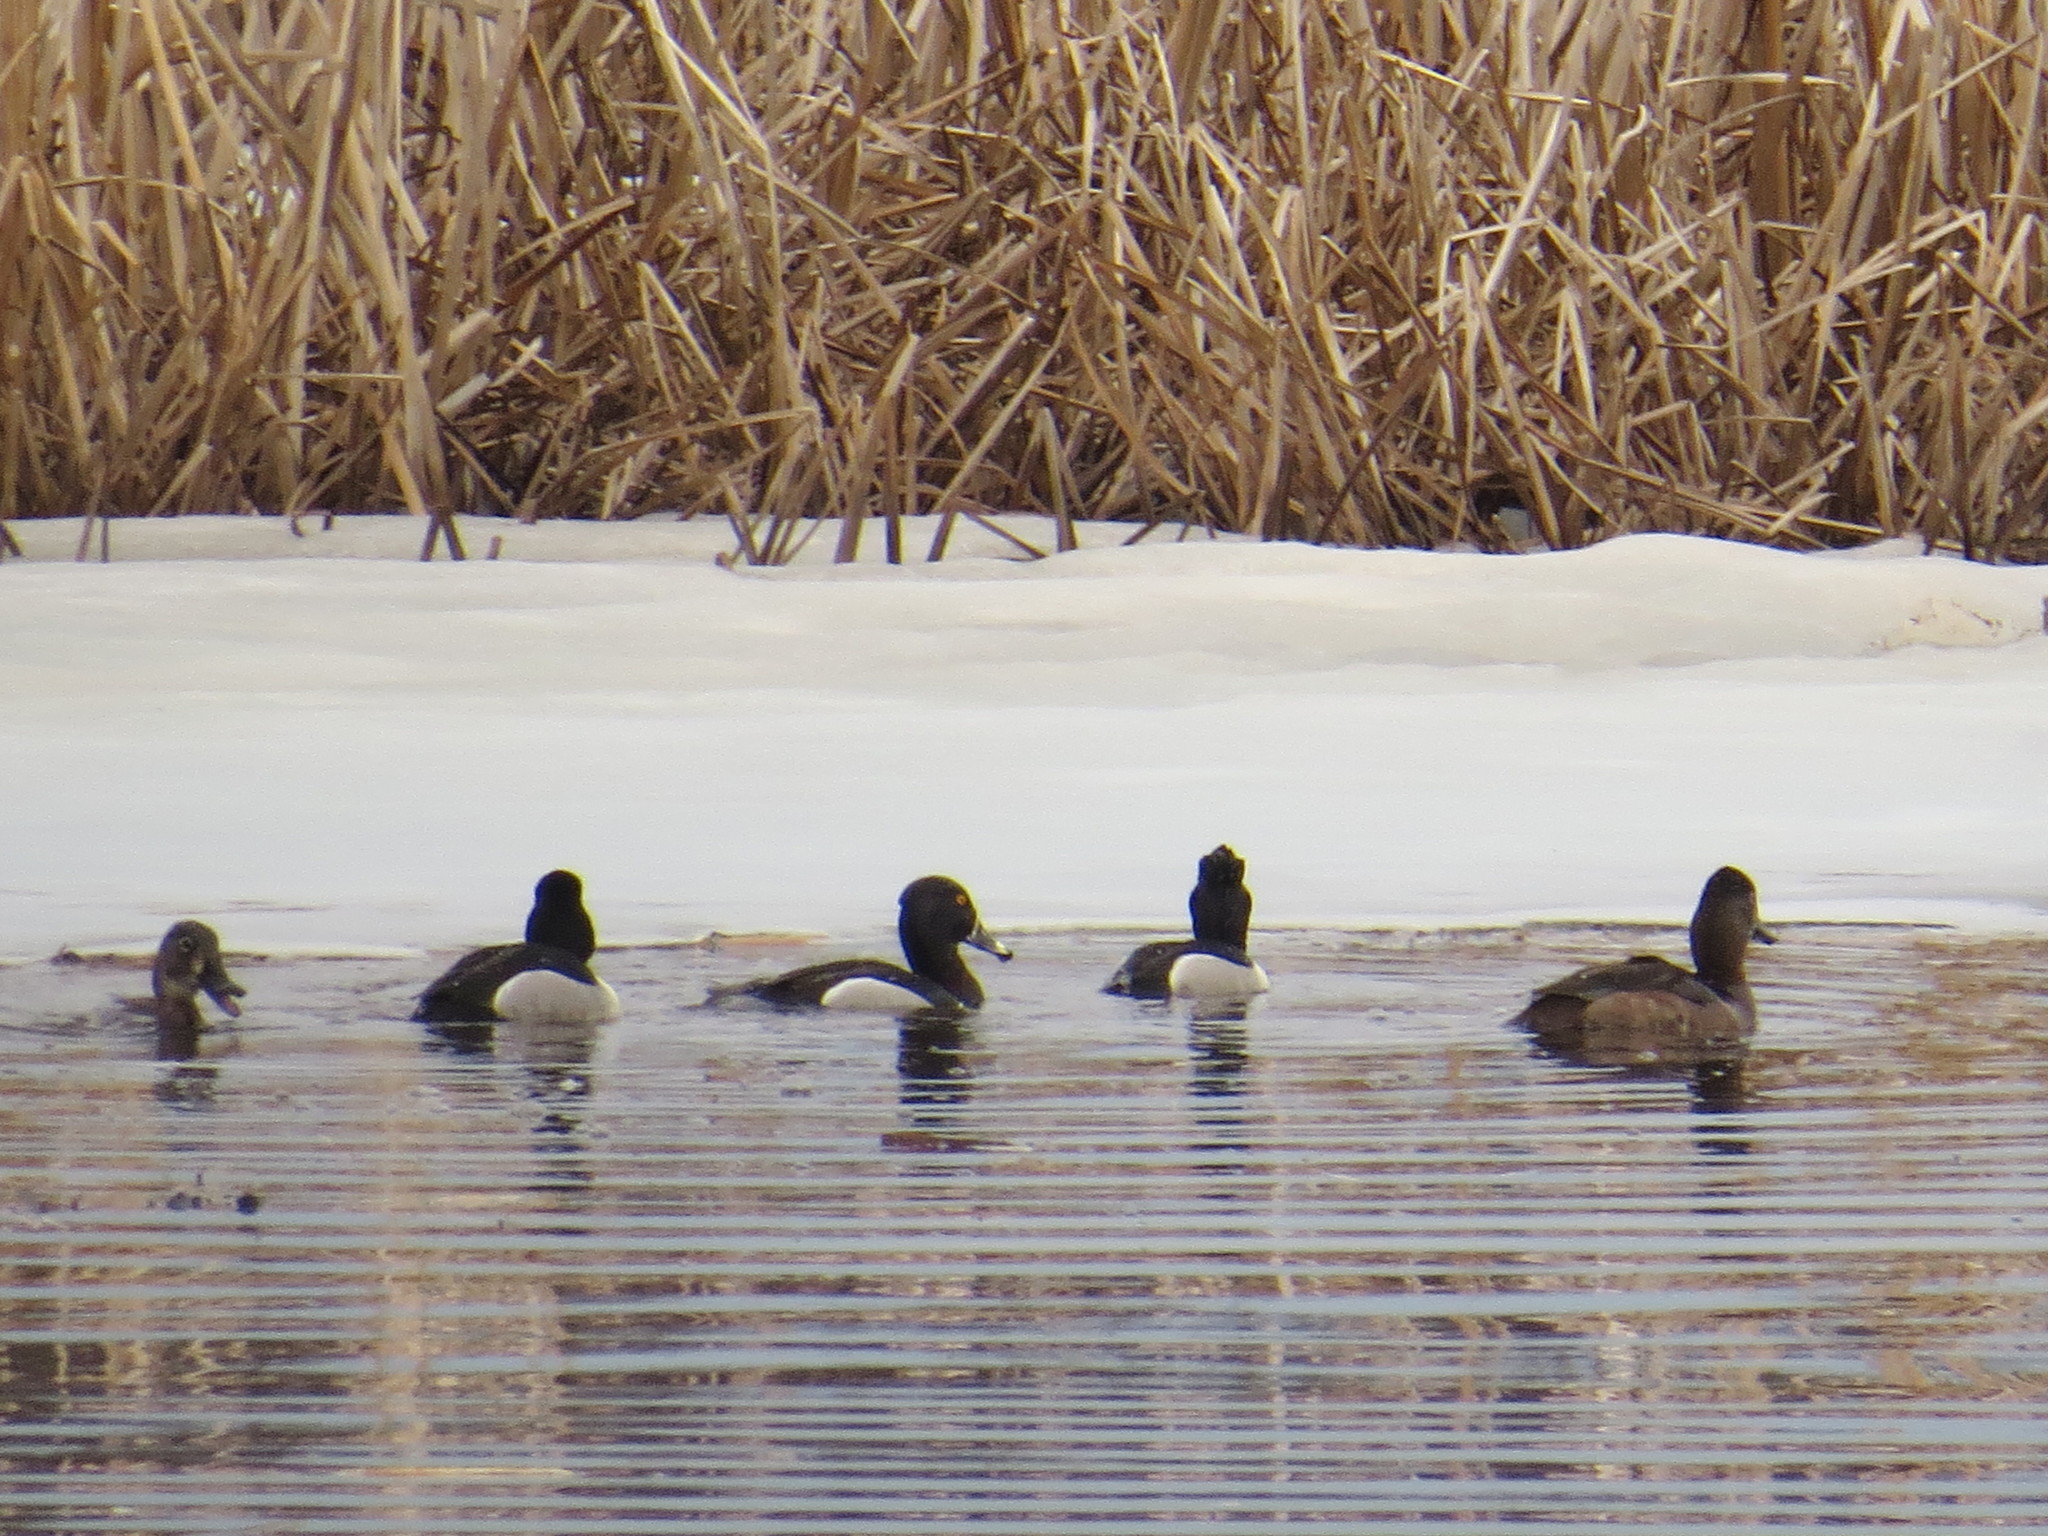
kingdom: Animalia
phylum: Chordata
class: Aves
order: Anseriformes
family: Anatidae
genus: Aythya
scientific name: Aythya collaris
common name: Ring-necked duck
